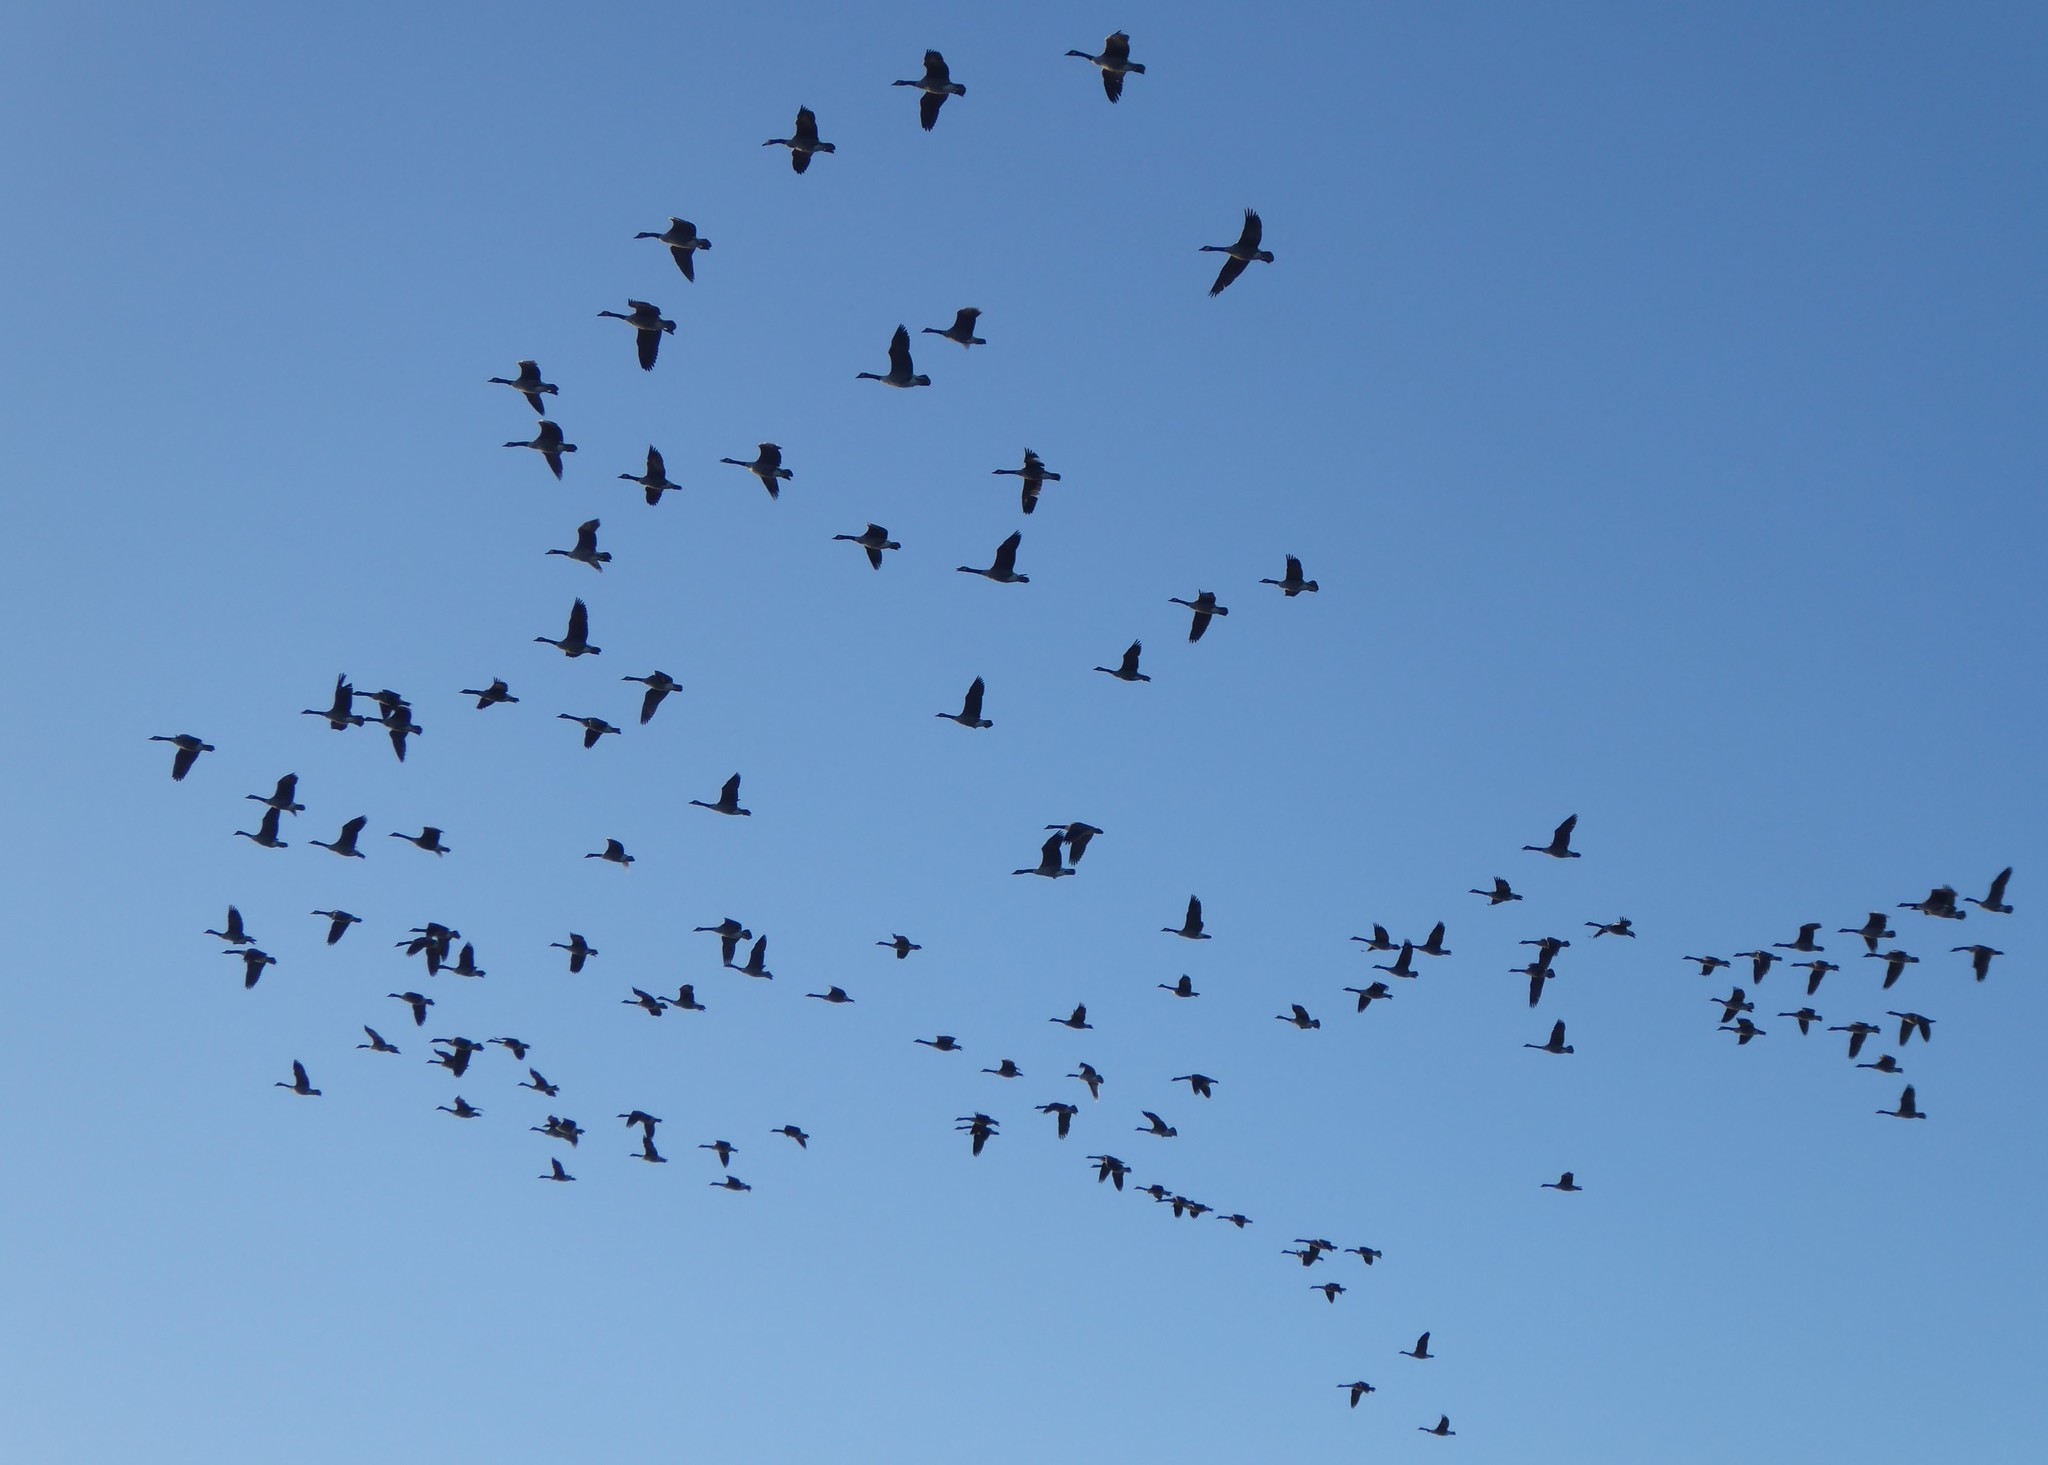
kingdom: Animalia
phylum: Chordata
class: Aves
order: Anseriformes
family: Anatidae
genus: Branta
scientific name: Branta canadensis
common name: Canada goose
